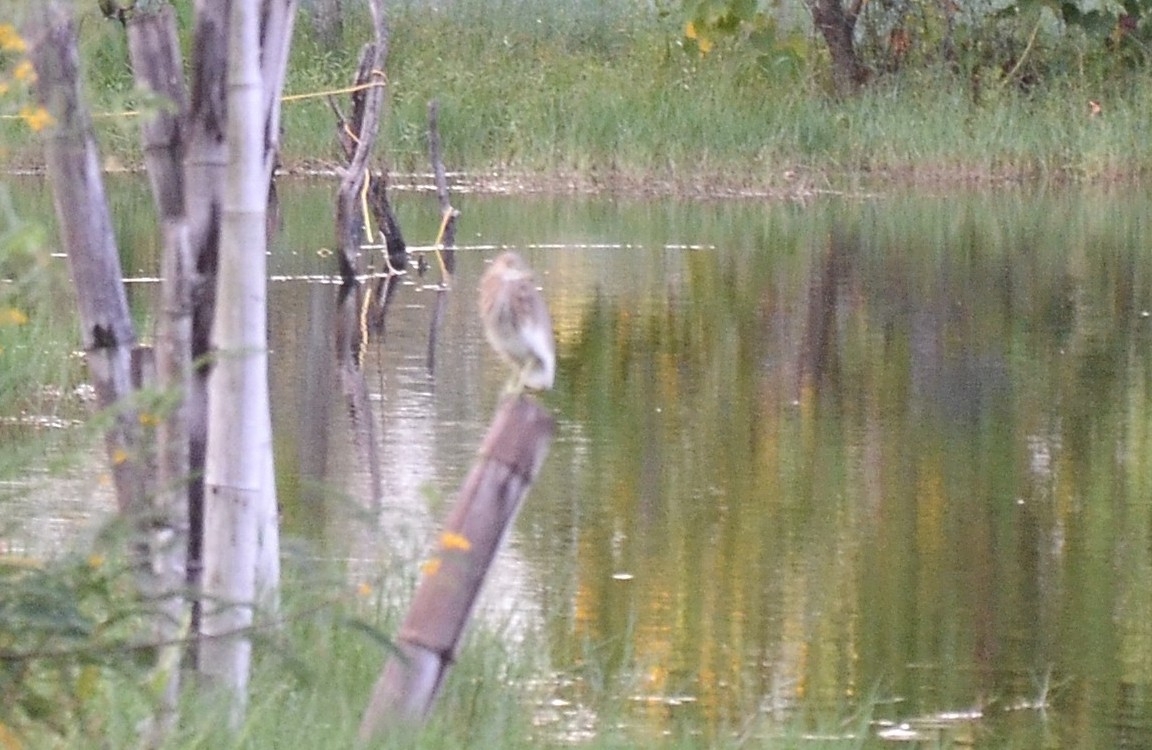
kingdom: Animalia
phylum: Chordata
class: Aves
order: Pelecaniformes
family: Ardeidae
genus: Ardeola
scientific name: Ardeola grayii
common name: Indian pond heron
